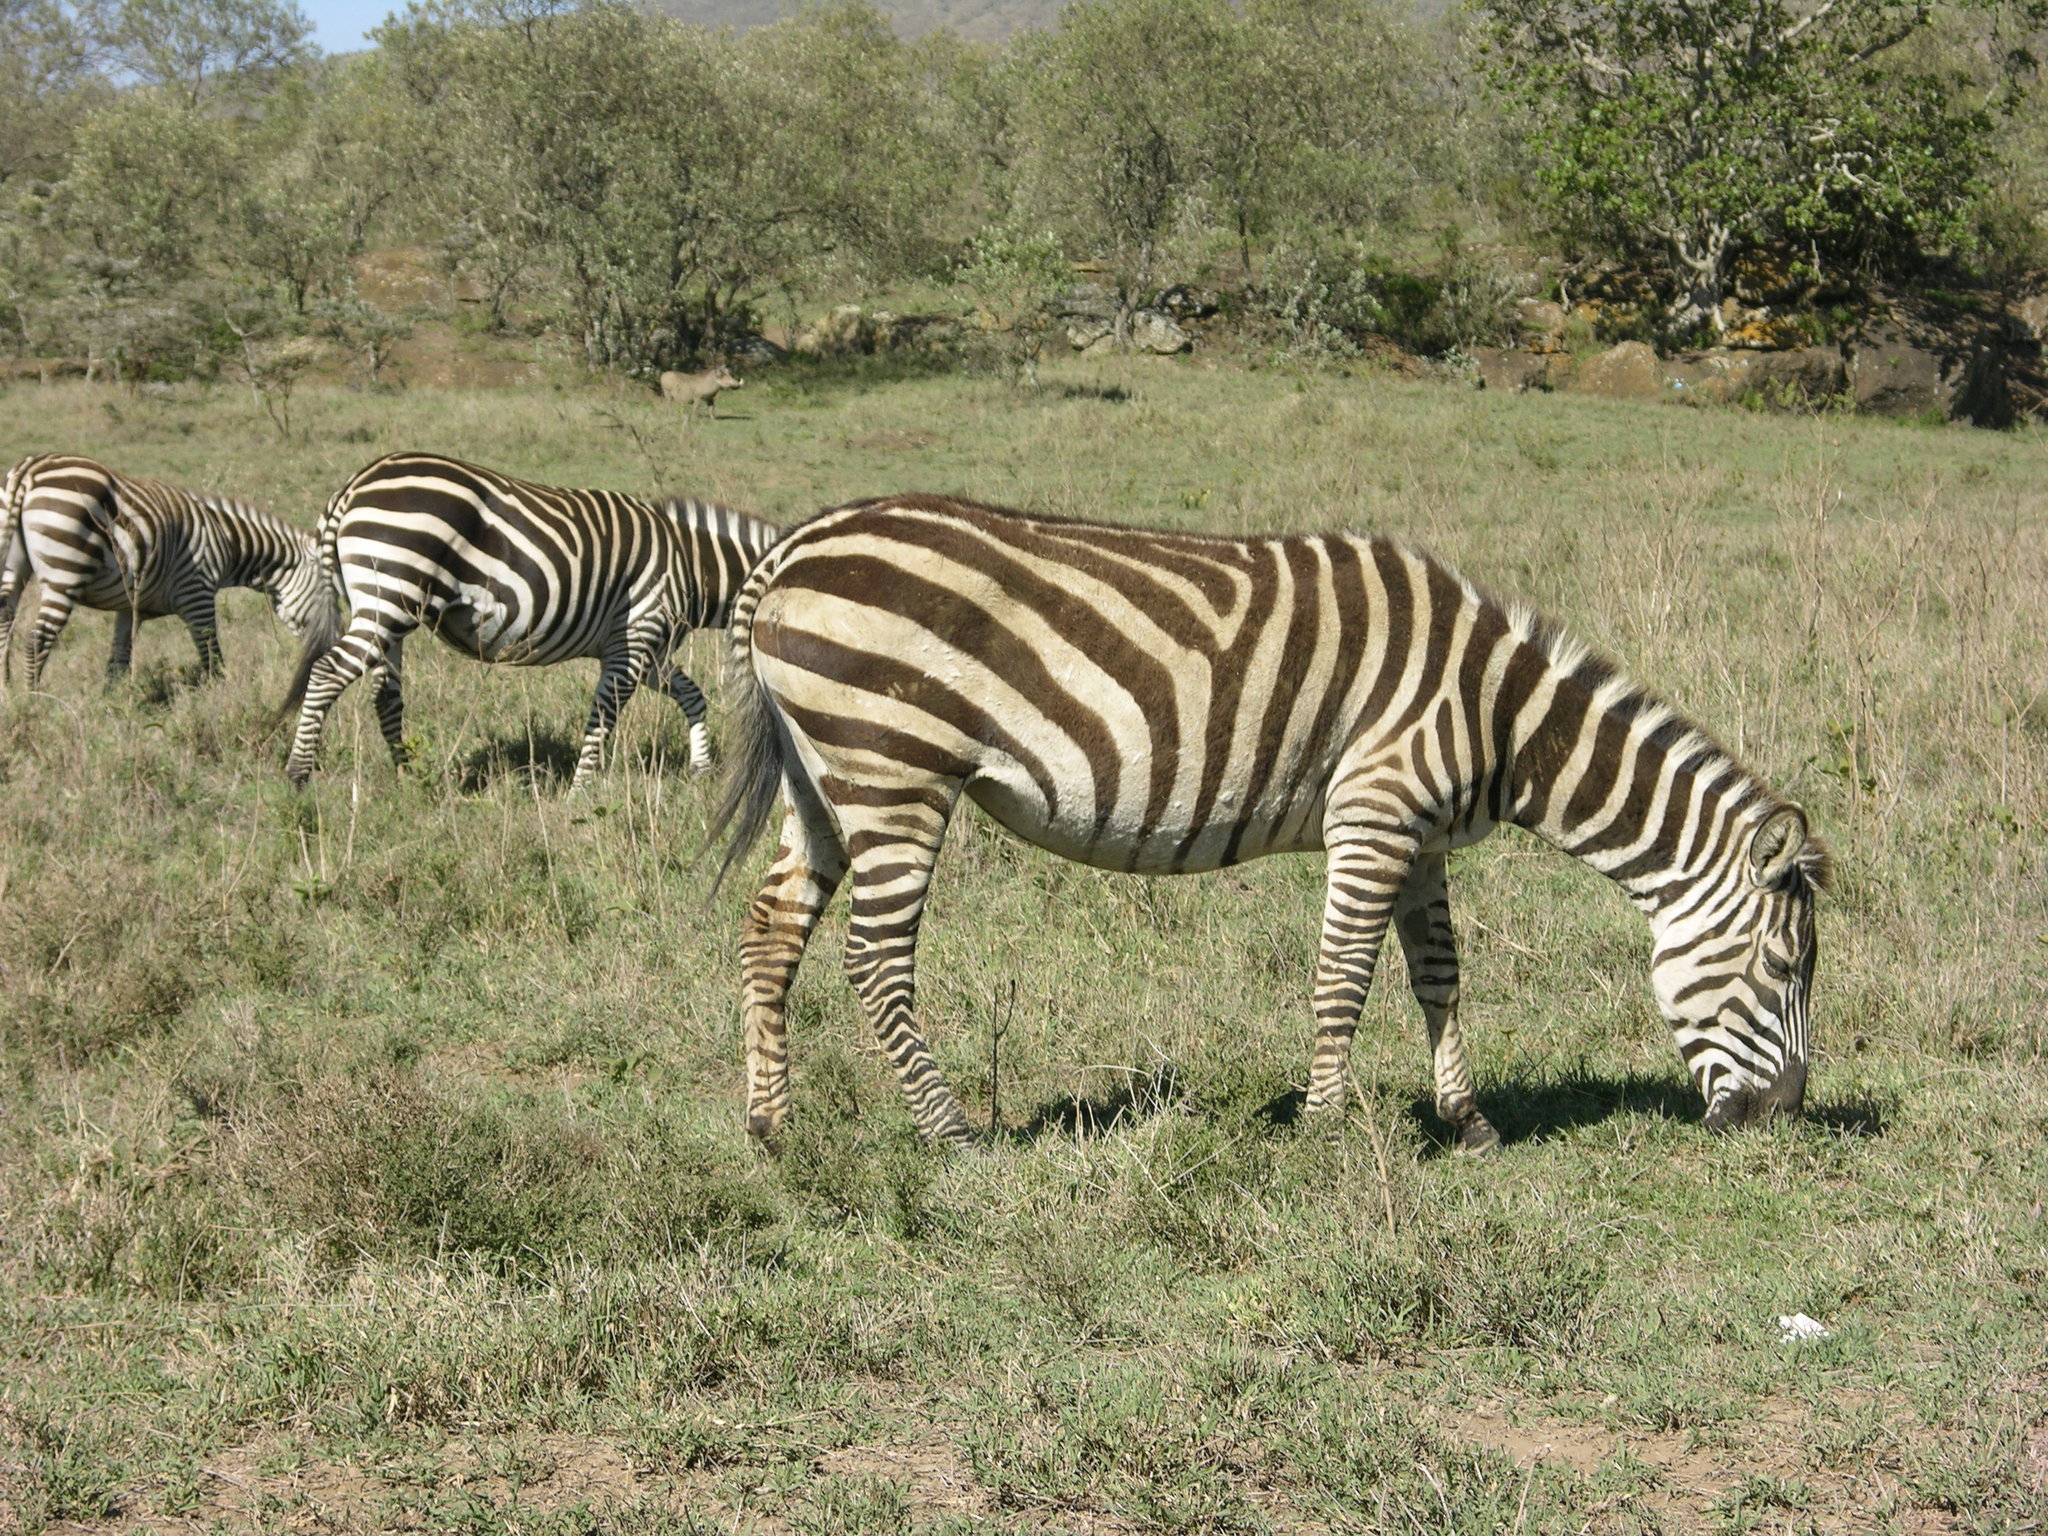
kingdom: Animalia
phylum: Chordata
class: Mammalia
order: Perissodactyla
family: Equidae
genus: Equus
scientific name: Equus quagga
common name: Plains zebra
